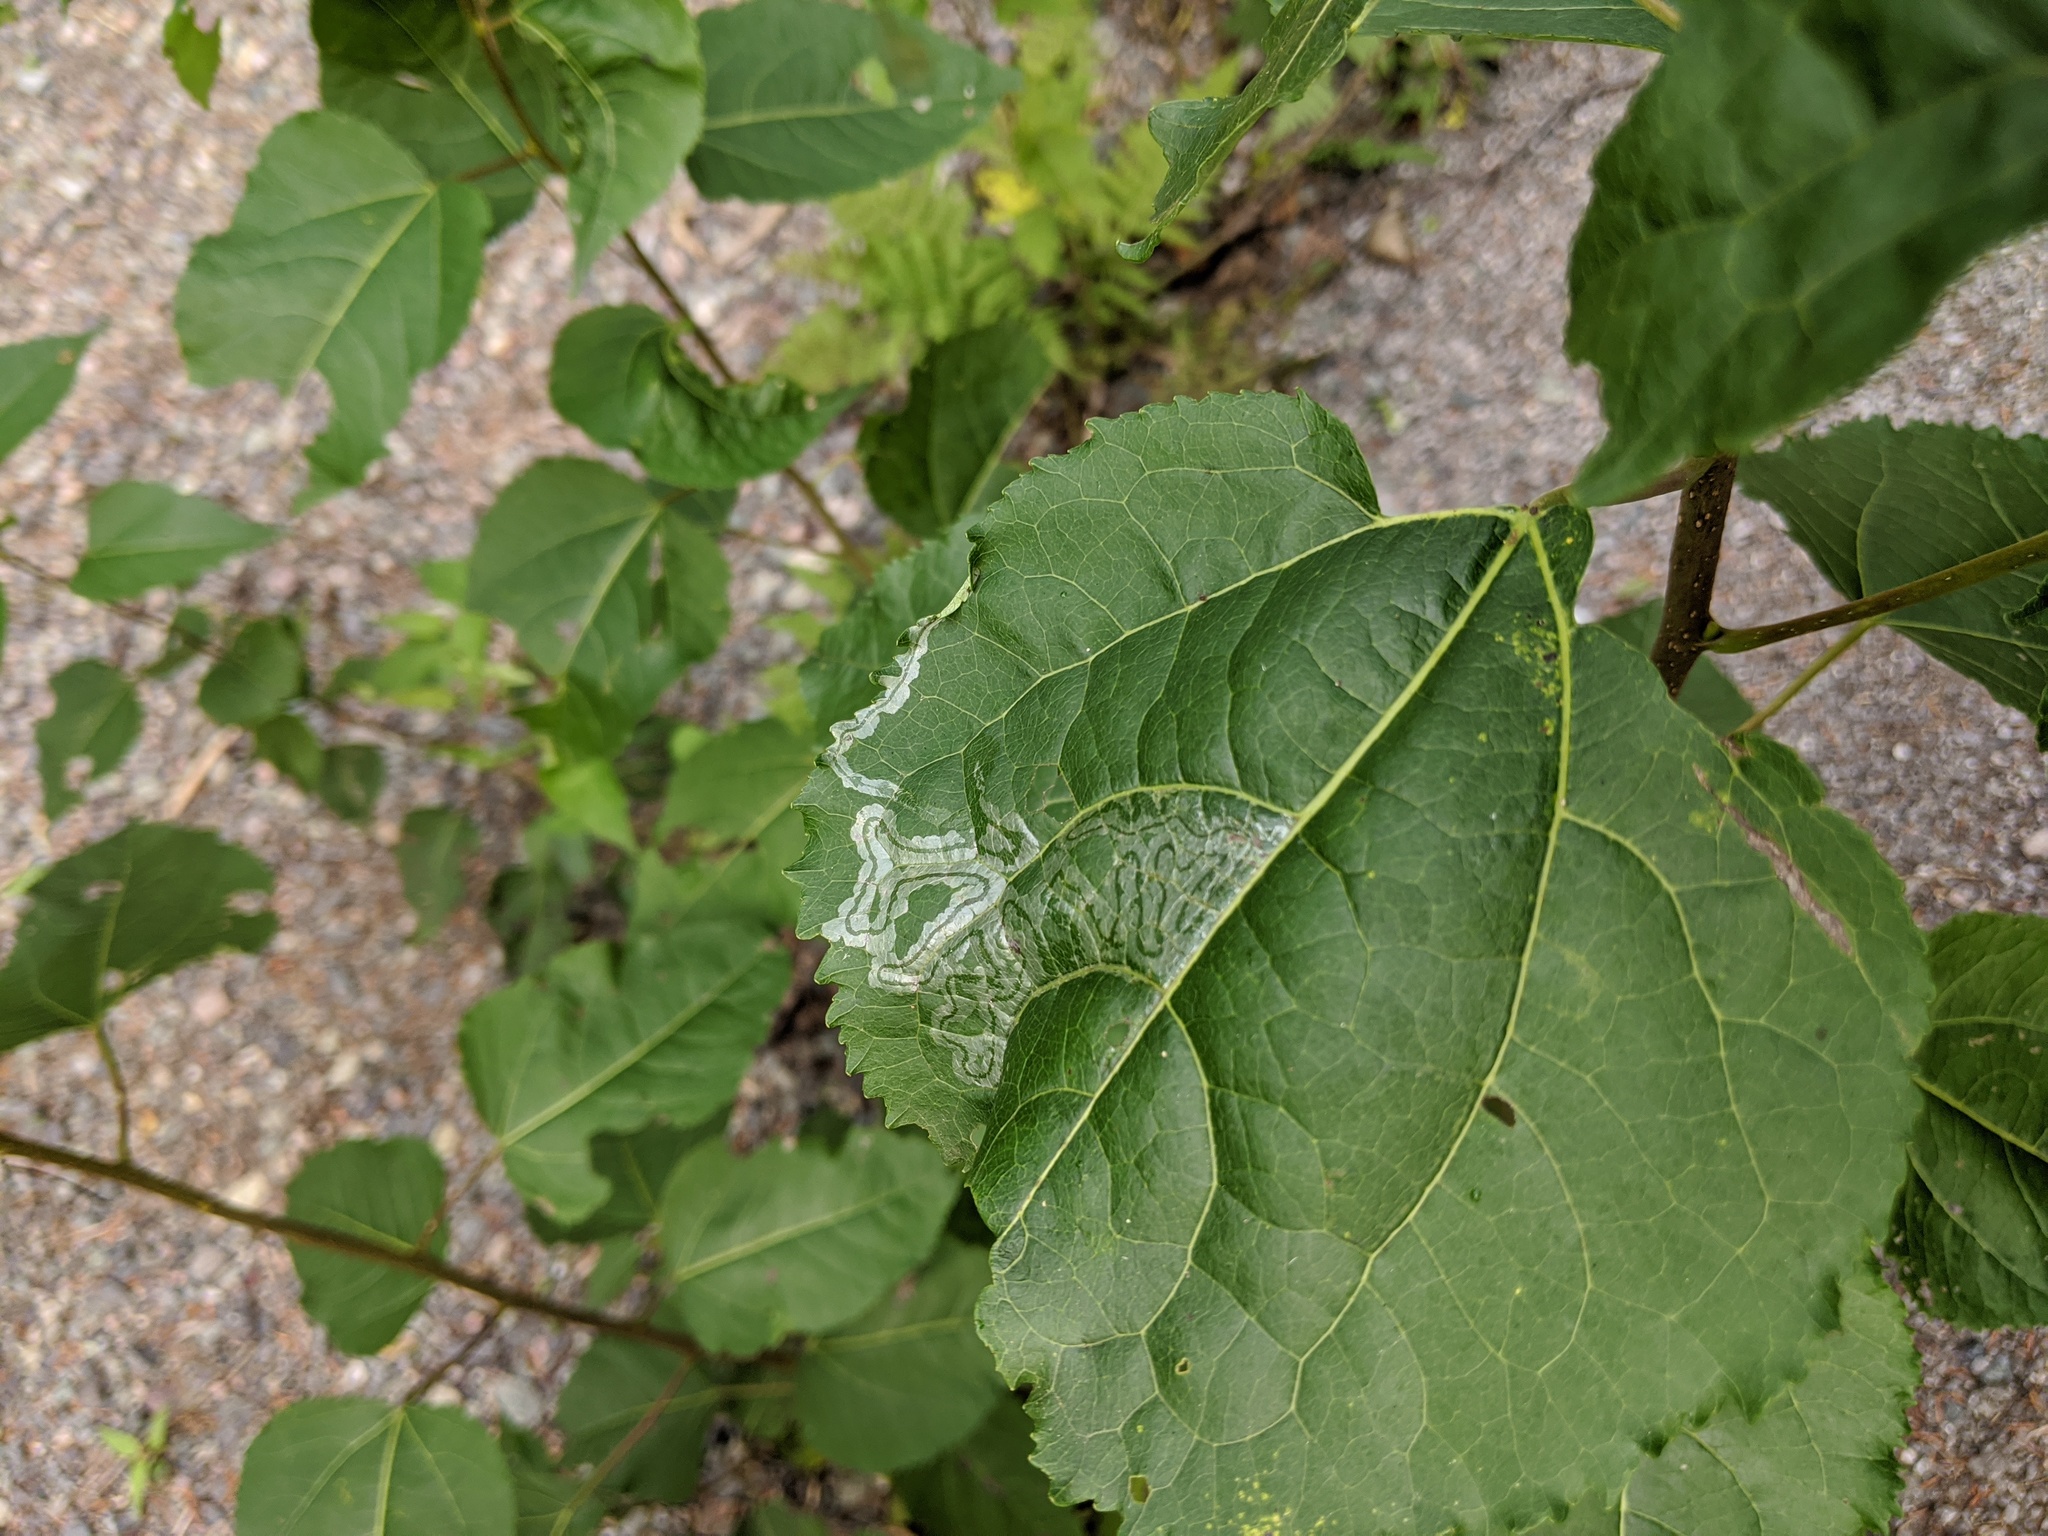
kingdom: Animalia
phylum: Arthropoda
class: Insecta
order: Lepidoptera
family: Gracillariidae
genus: Phyllocnistis
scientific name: Phyllocnistis populiella
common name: Aspen serpentine leafminer moth
